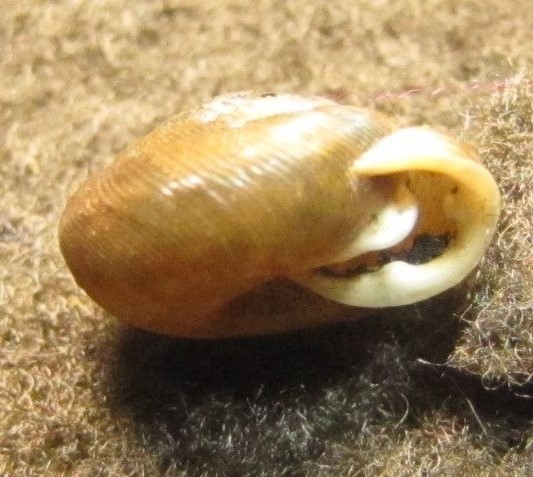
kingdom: Animalia
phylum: Mollusca
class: Gastropoda
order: Stylommatophora
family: Polygyridae
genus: Triodopsis
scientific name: Triodopsis hopetonensis
